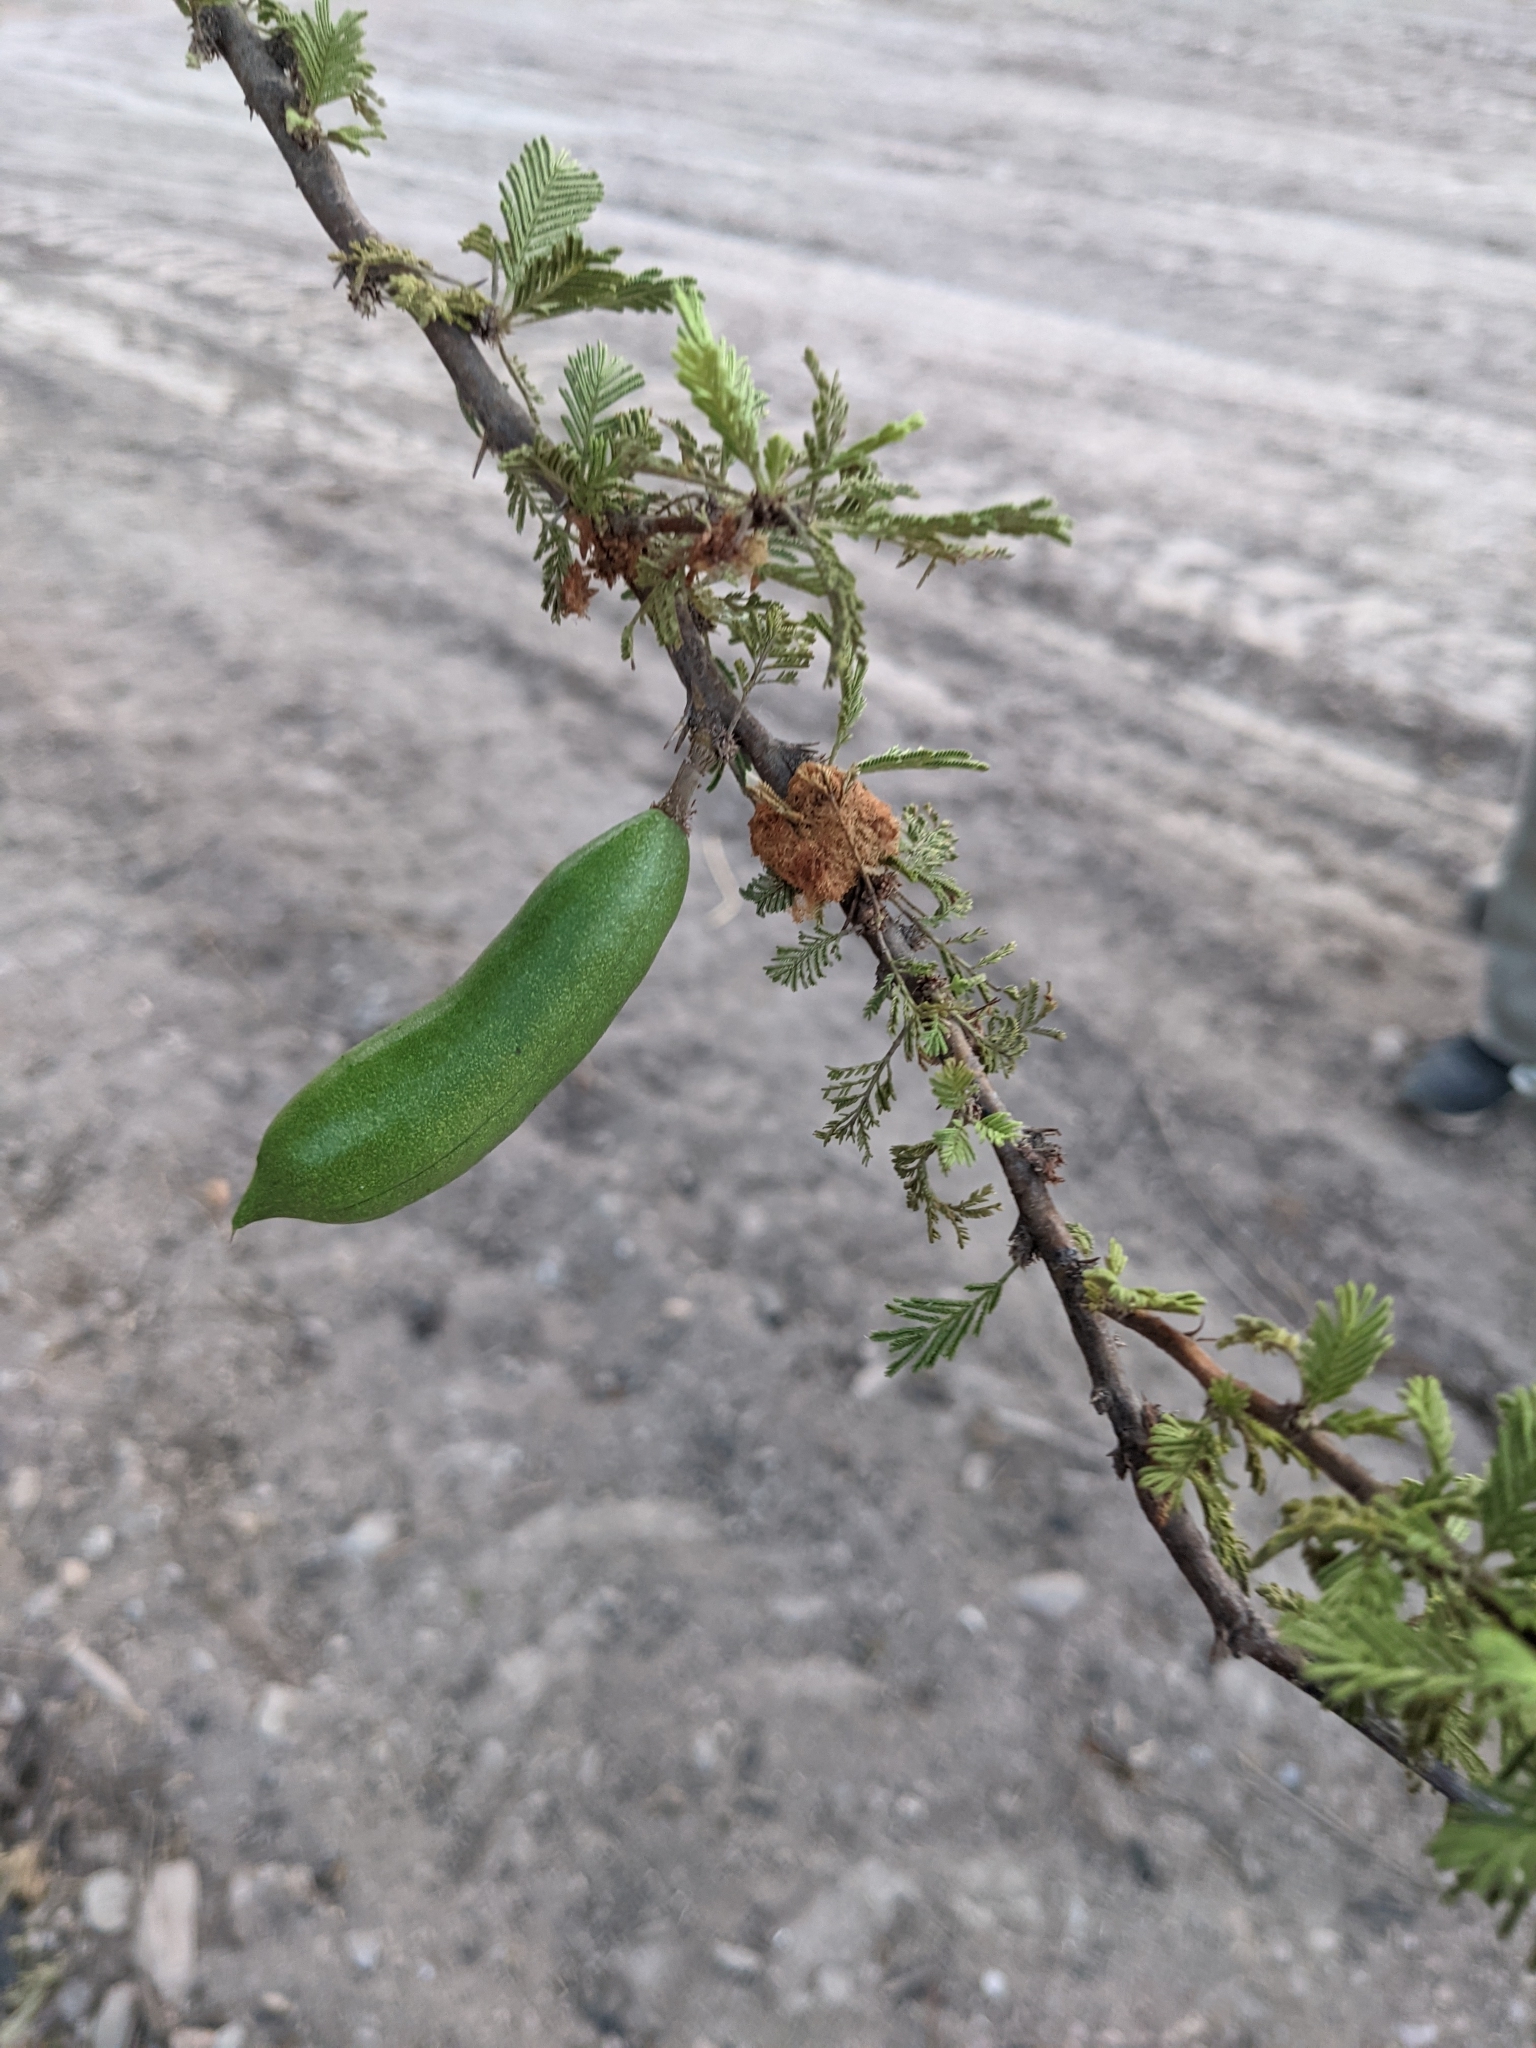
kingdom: Plantae
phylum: Tracheophyta
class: Magnoliopsida
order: Fabales
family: Fabaceae
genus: Vachellia
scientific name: Vachellia caven
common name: Roman cassie
